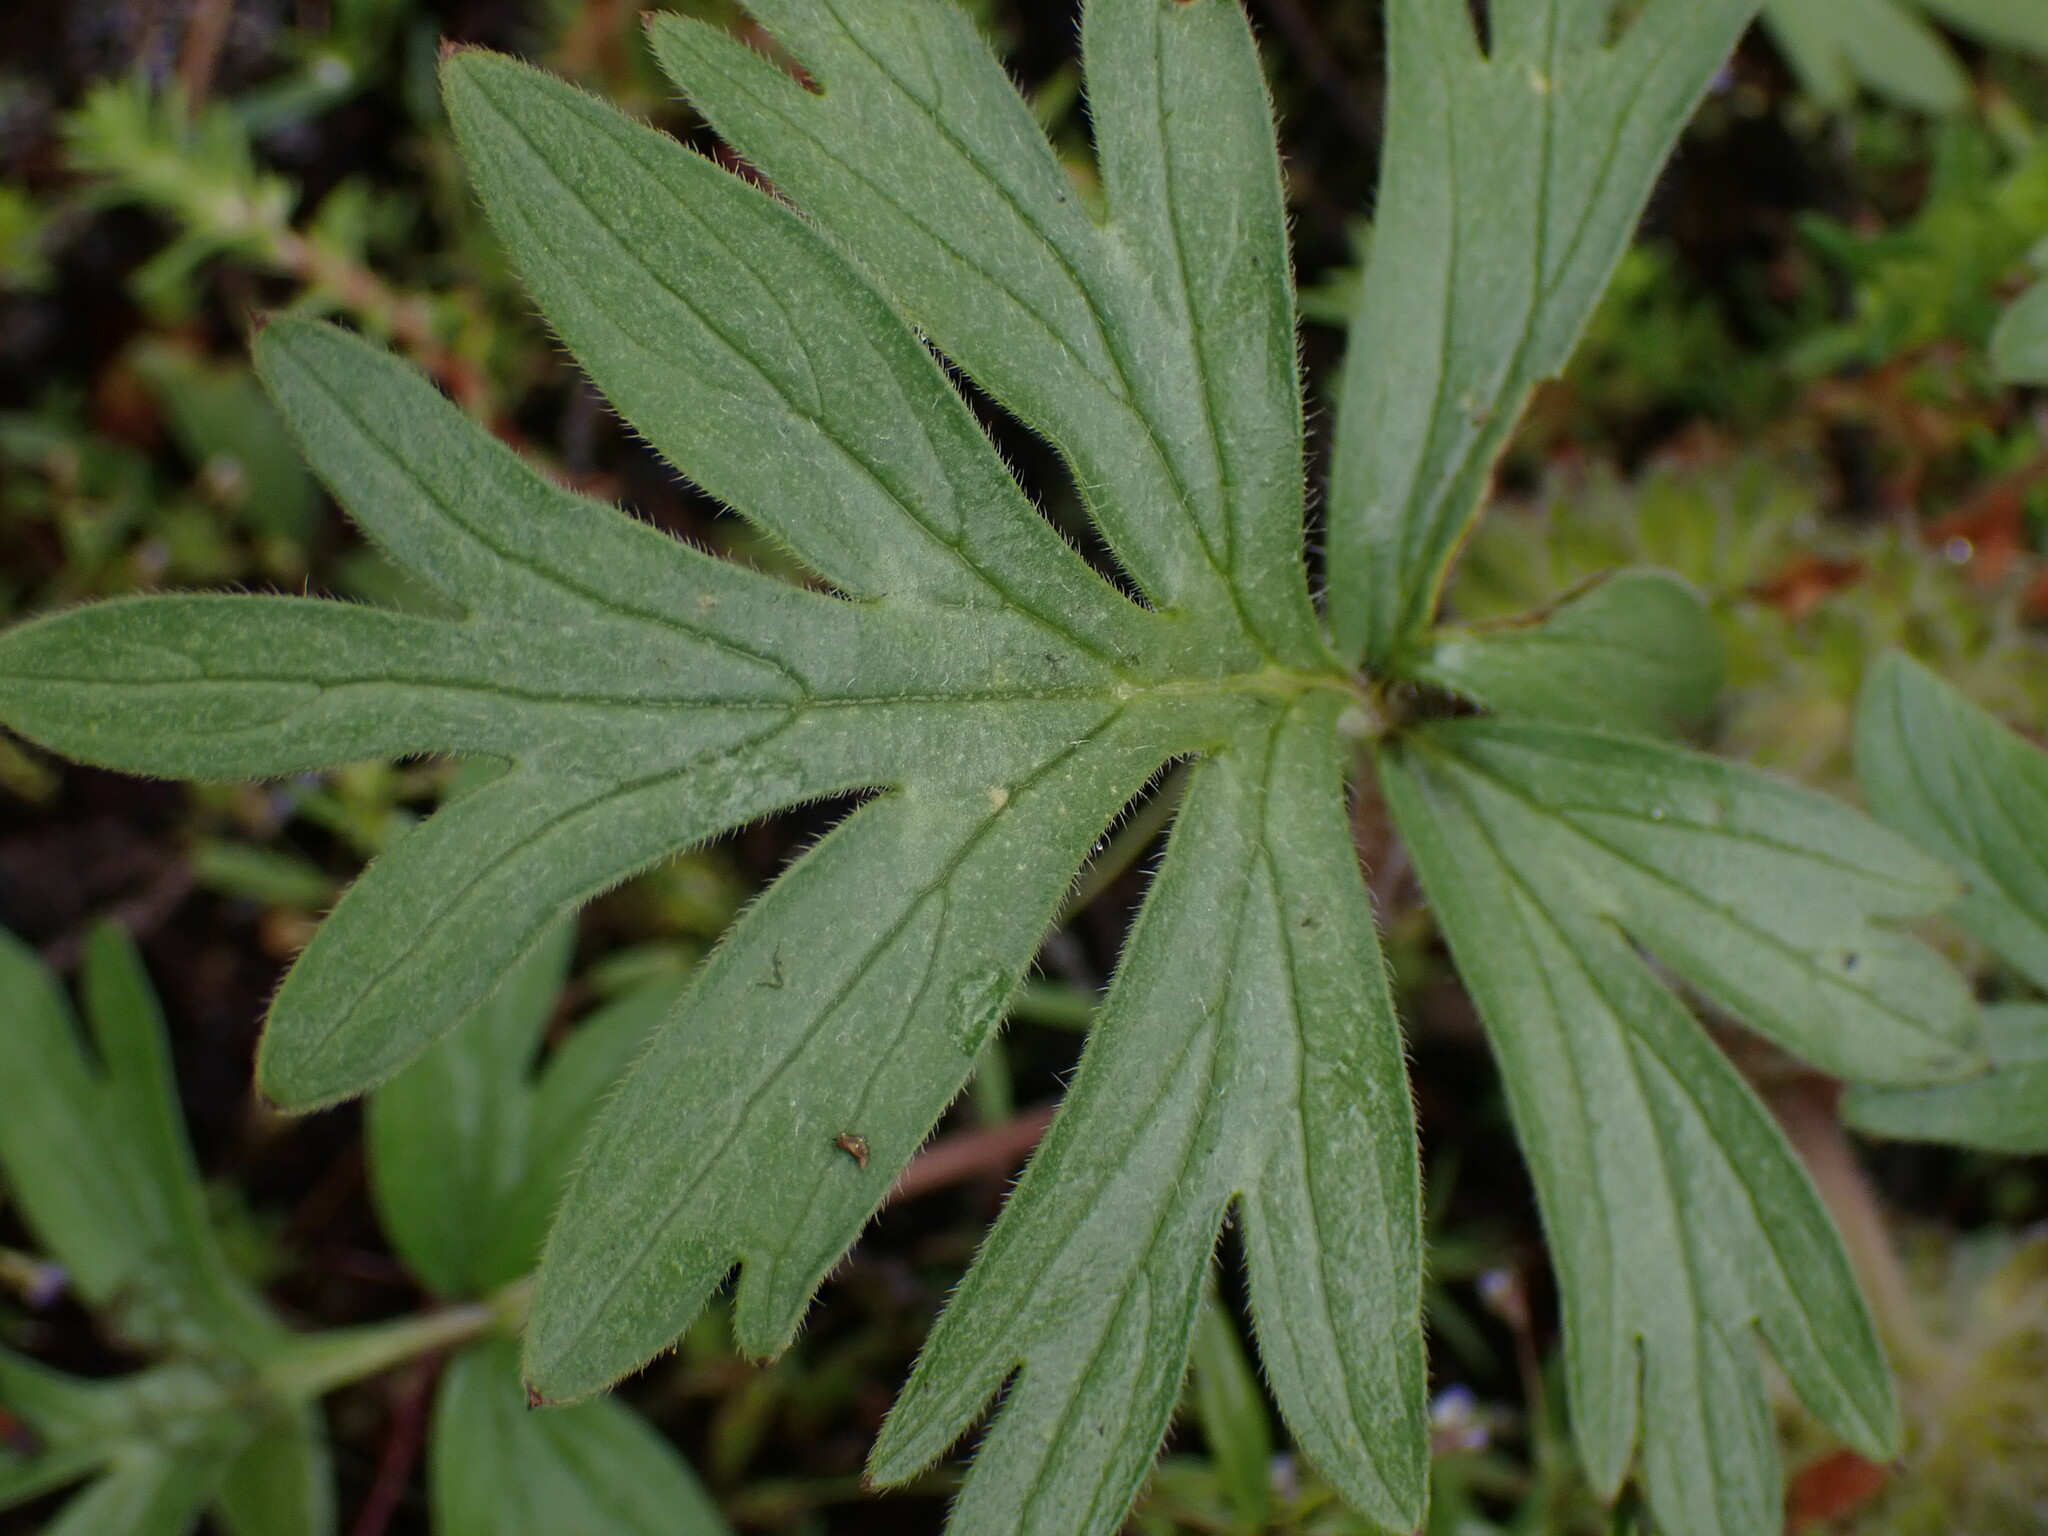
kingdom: Plantae
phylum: Tracheophyta
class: Magnoliopsida
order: Boraginales
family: Hydrophyllaceae
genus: Hydrophyllum
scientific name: Hydrophyllum capitatum
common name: Woollen-breeches
